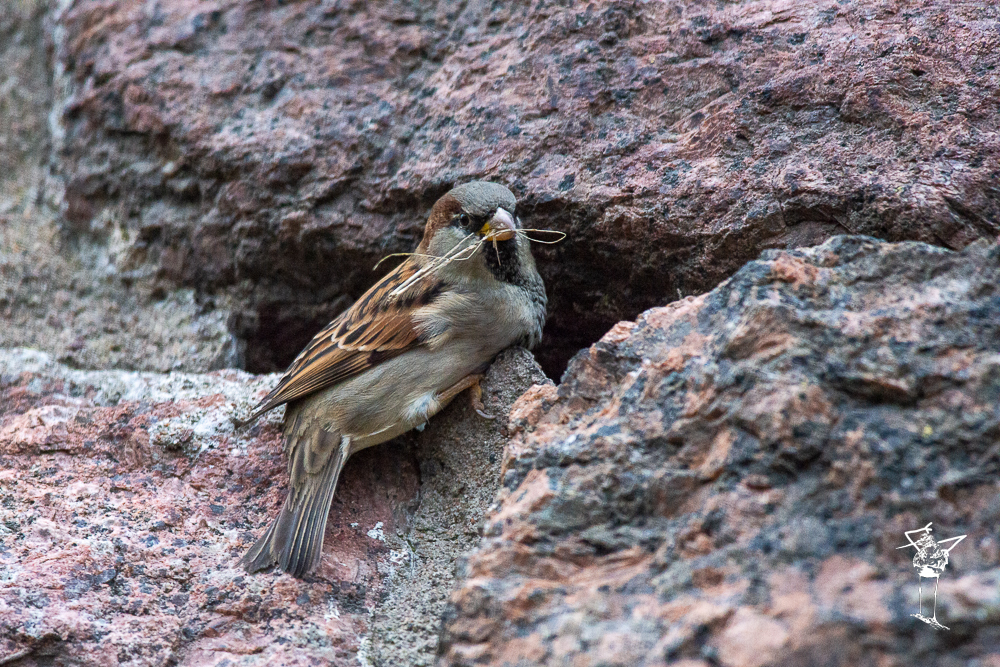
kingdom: Animalia
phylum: Chordata
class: Aves
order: Passeriformes
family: Passeridae
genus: Passer
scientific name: Passer domesticus
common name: House sparrow
